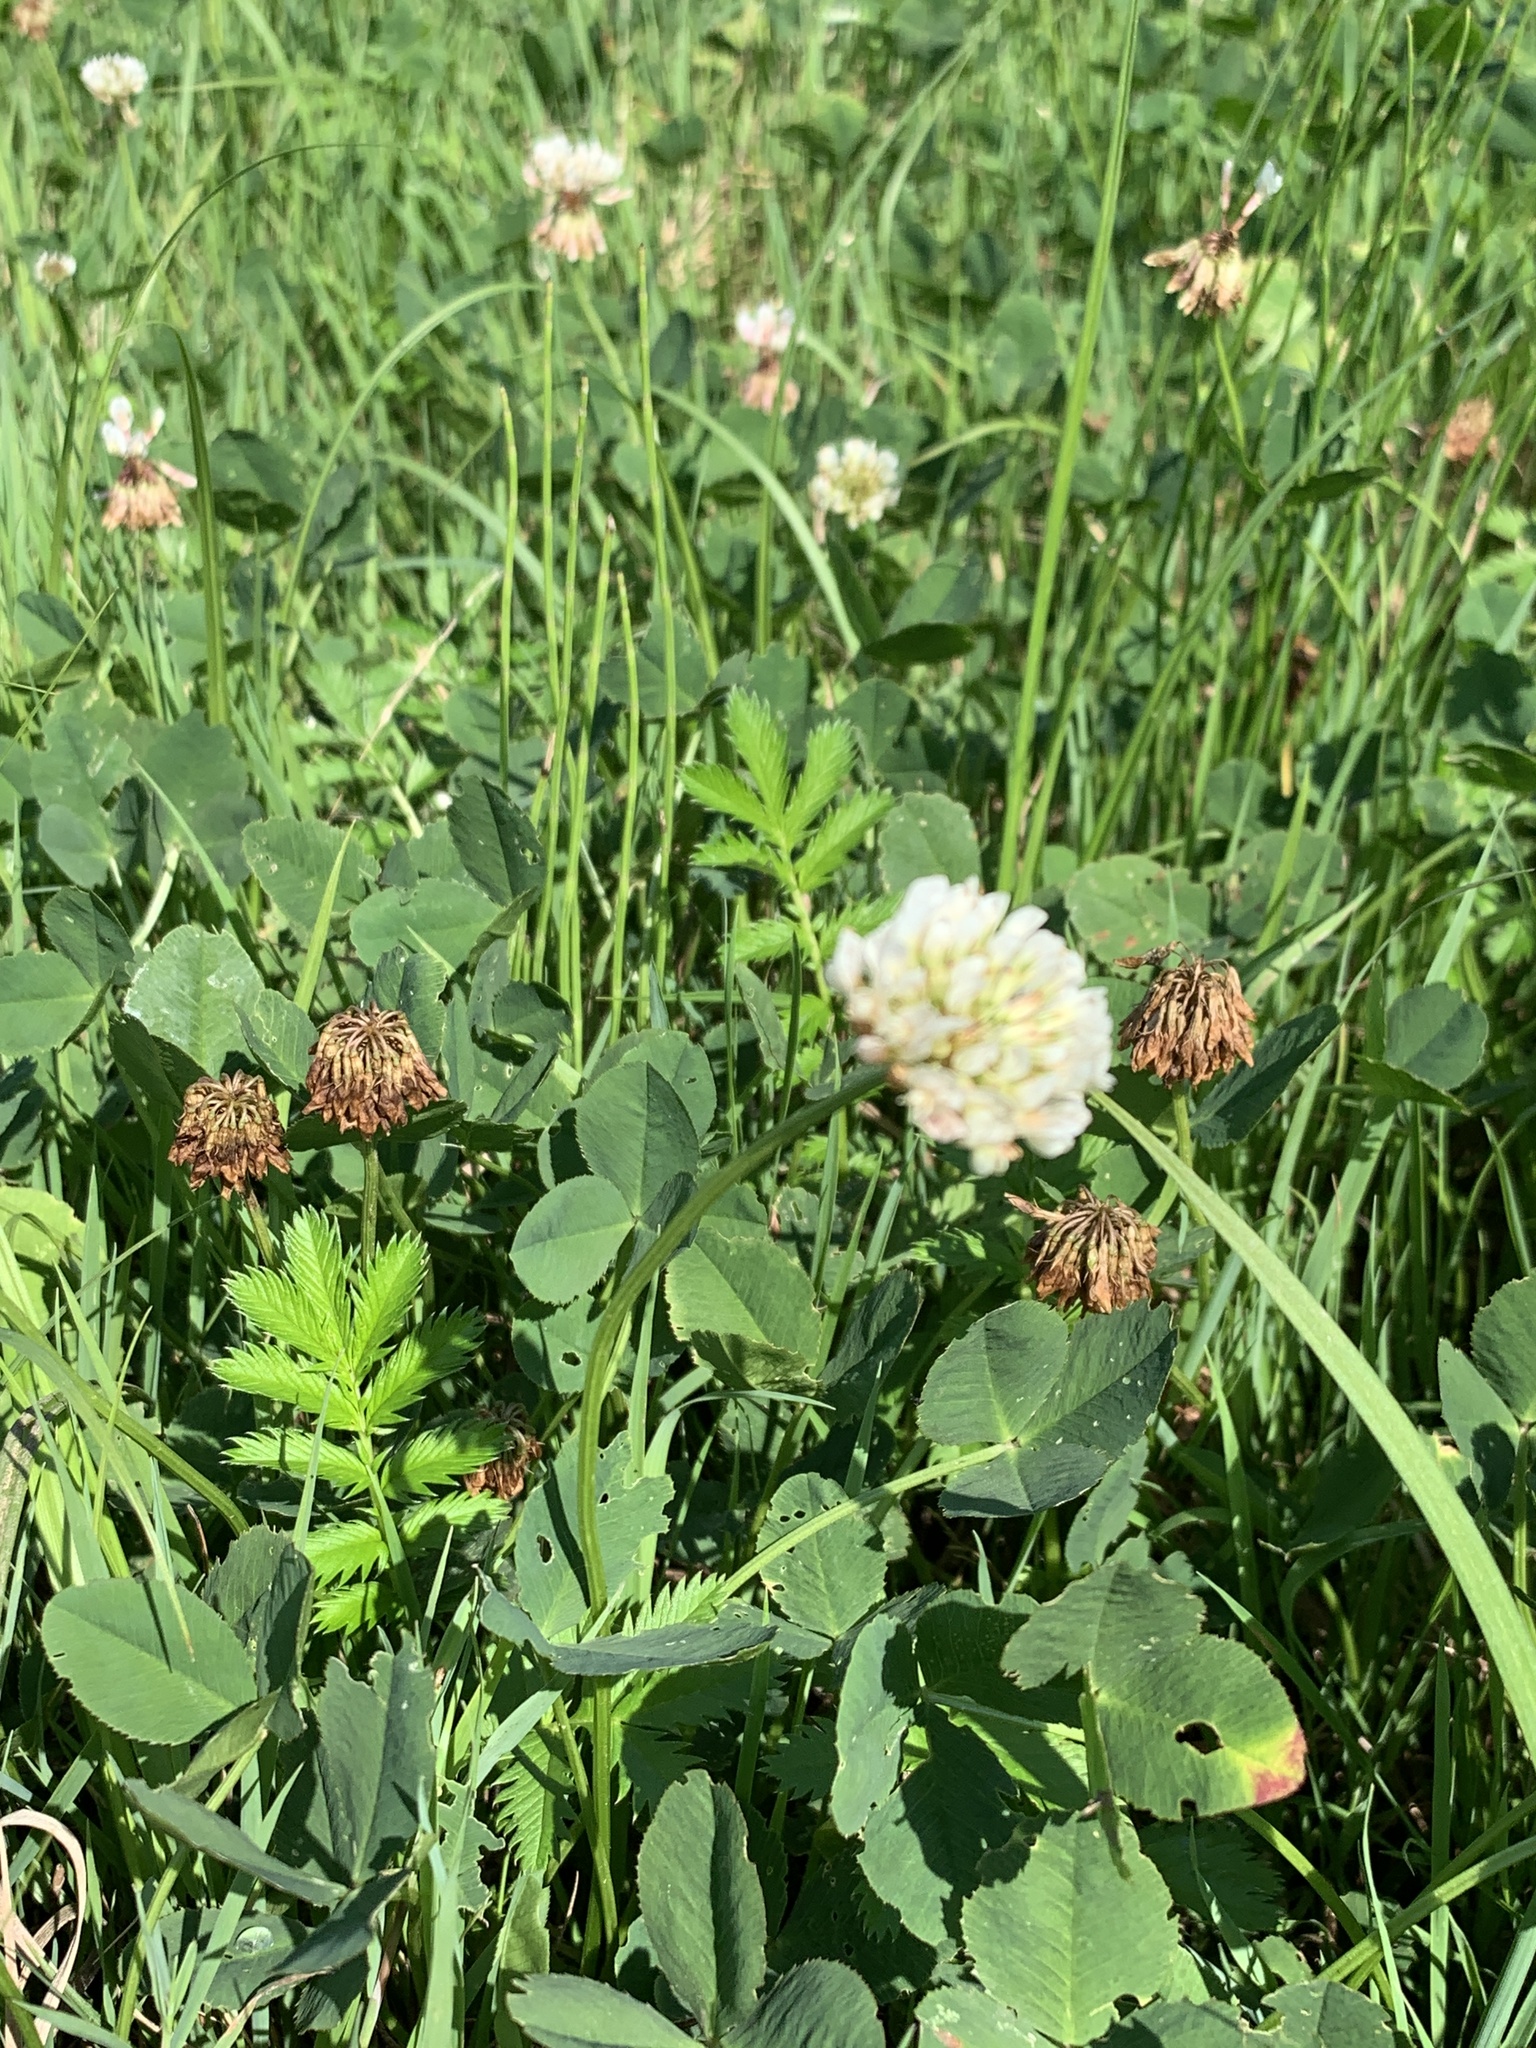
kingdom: Plantae
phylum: Tracheophyta
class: Magnoliopsida
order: Fabales
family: Fabaceae
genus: Trifolium
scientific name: Trifolium repens
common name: White clover
